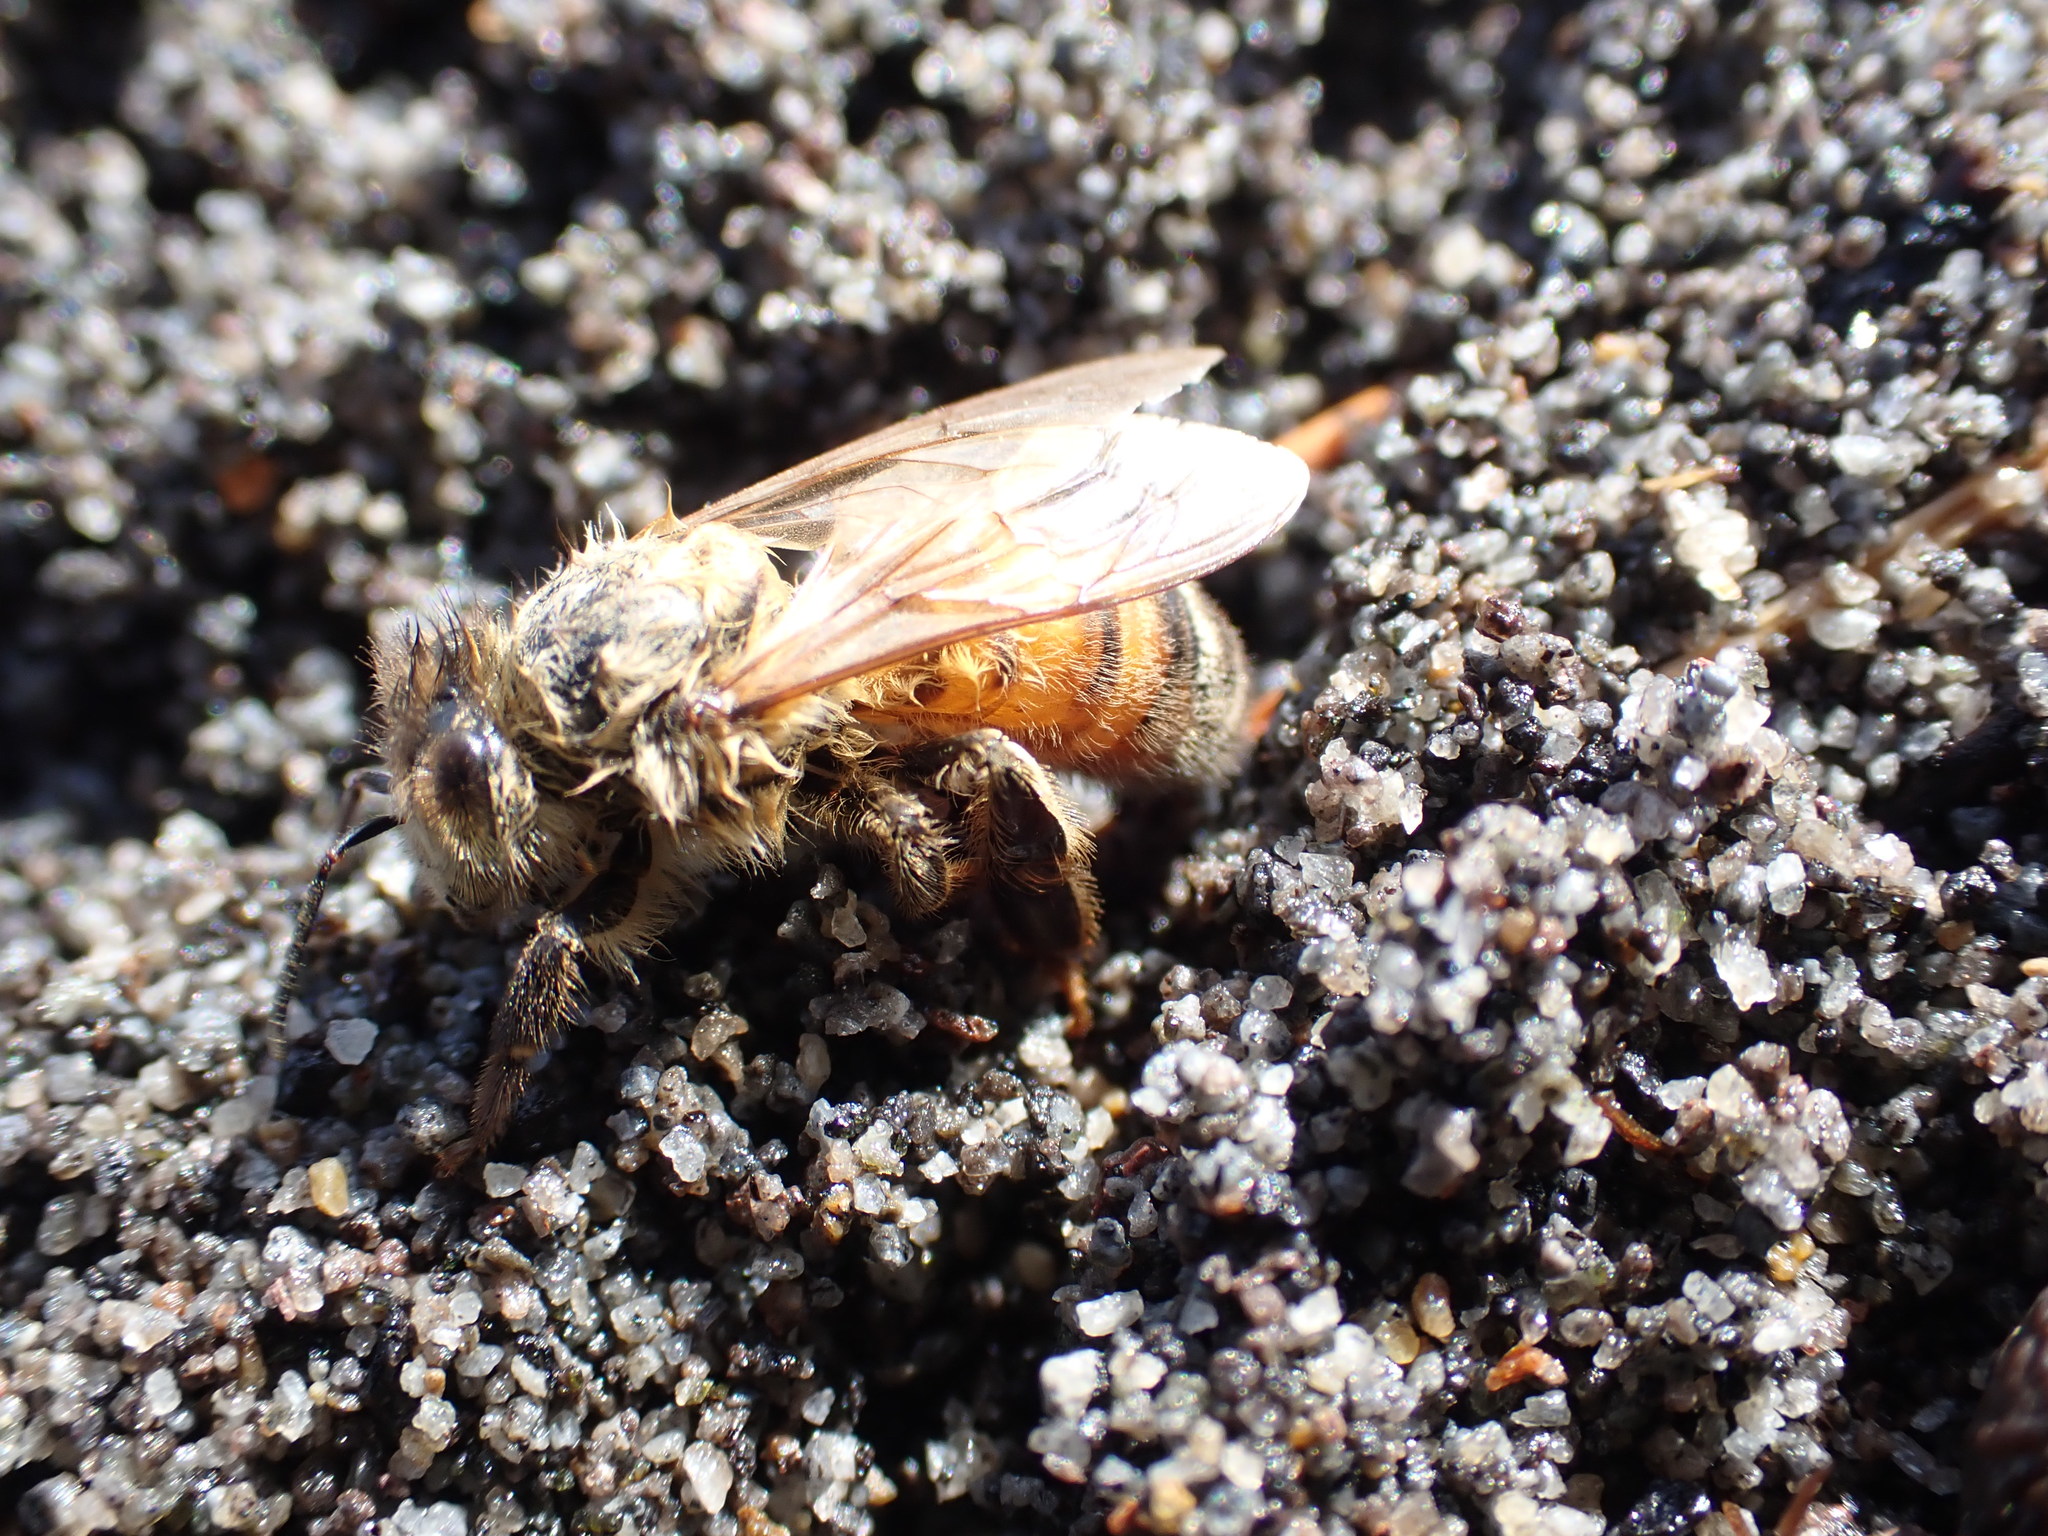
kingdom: Animalia
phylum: Arthropoda
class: Insecta
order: Hymenoptera
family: Apidae
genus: Apis
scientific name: Apis mellifera
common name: Honey bee
